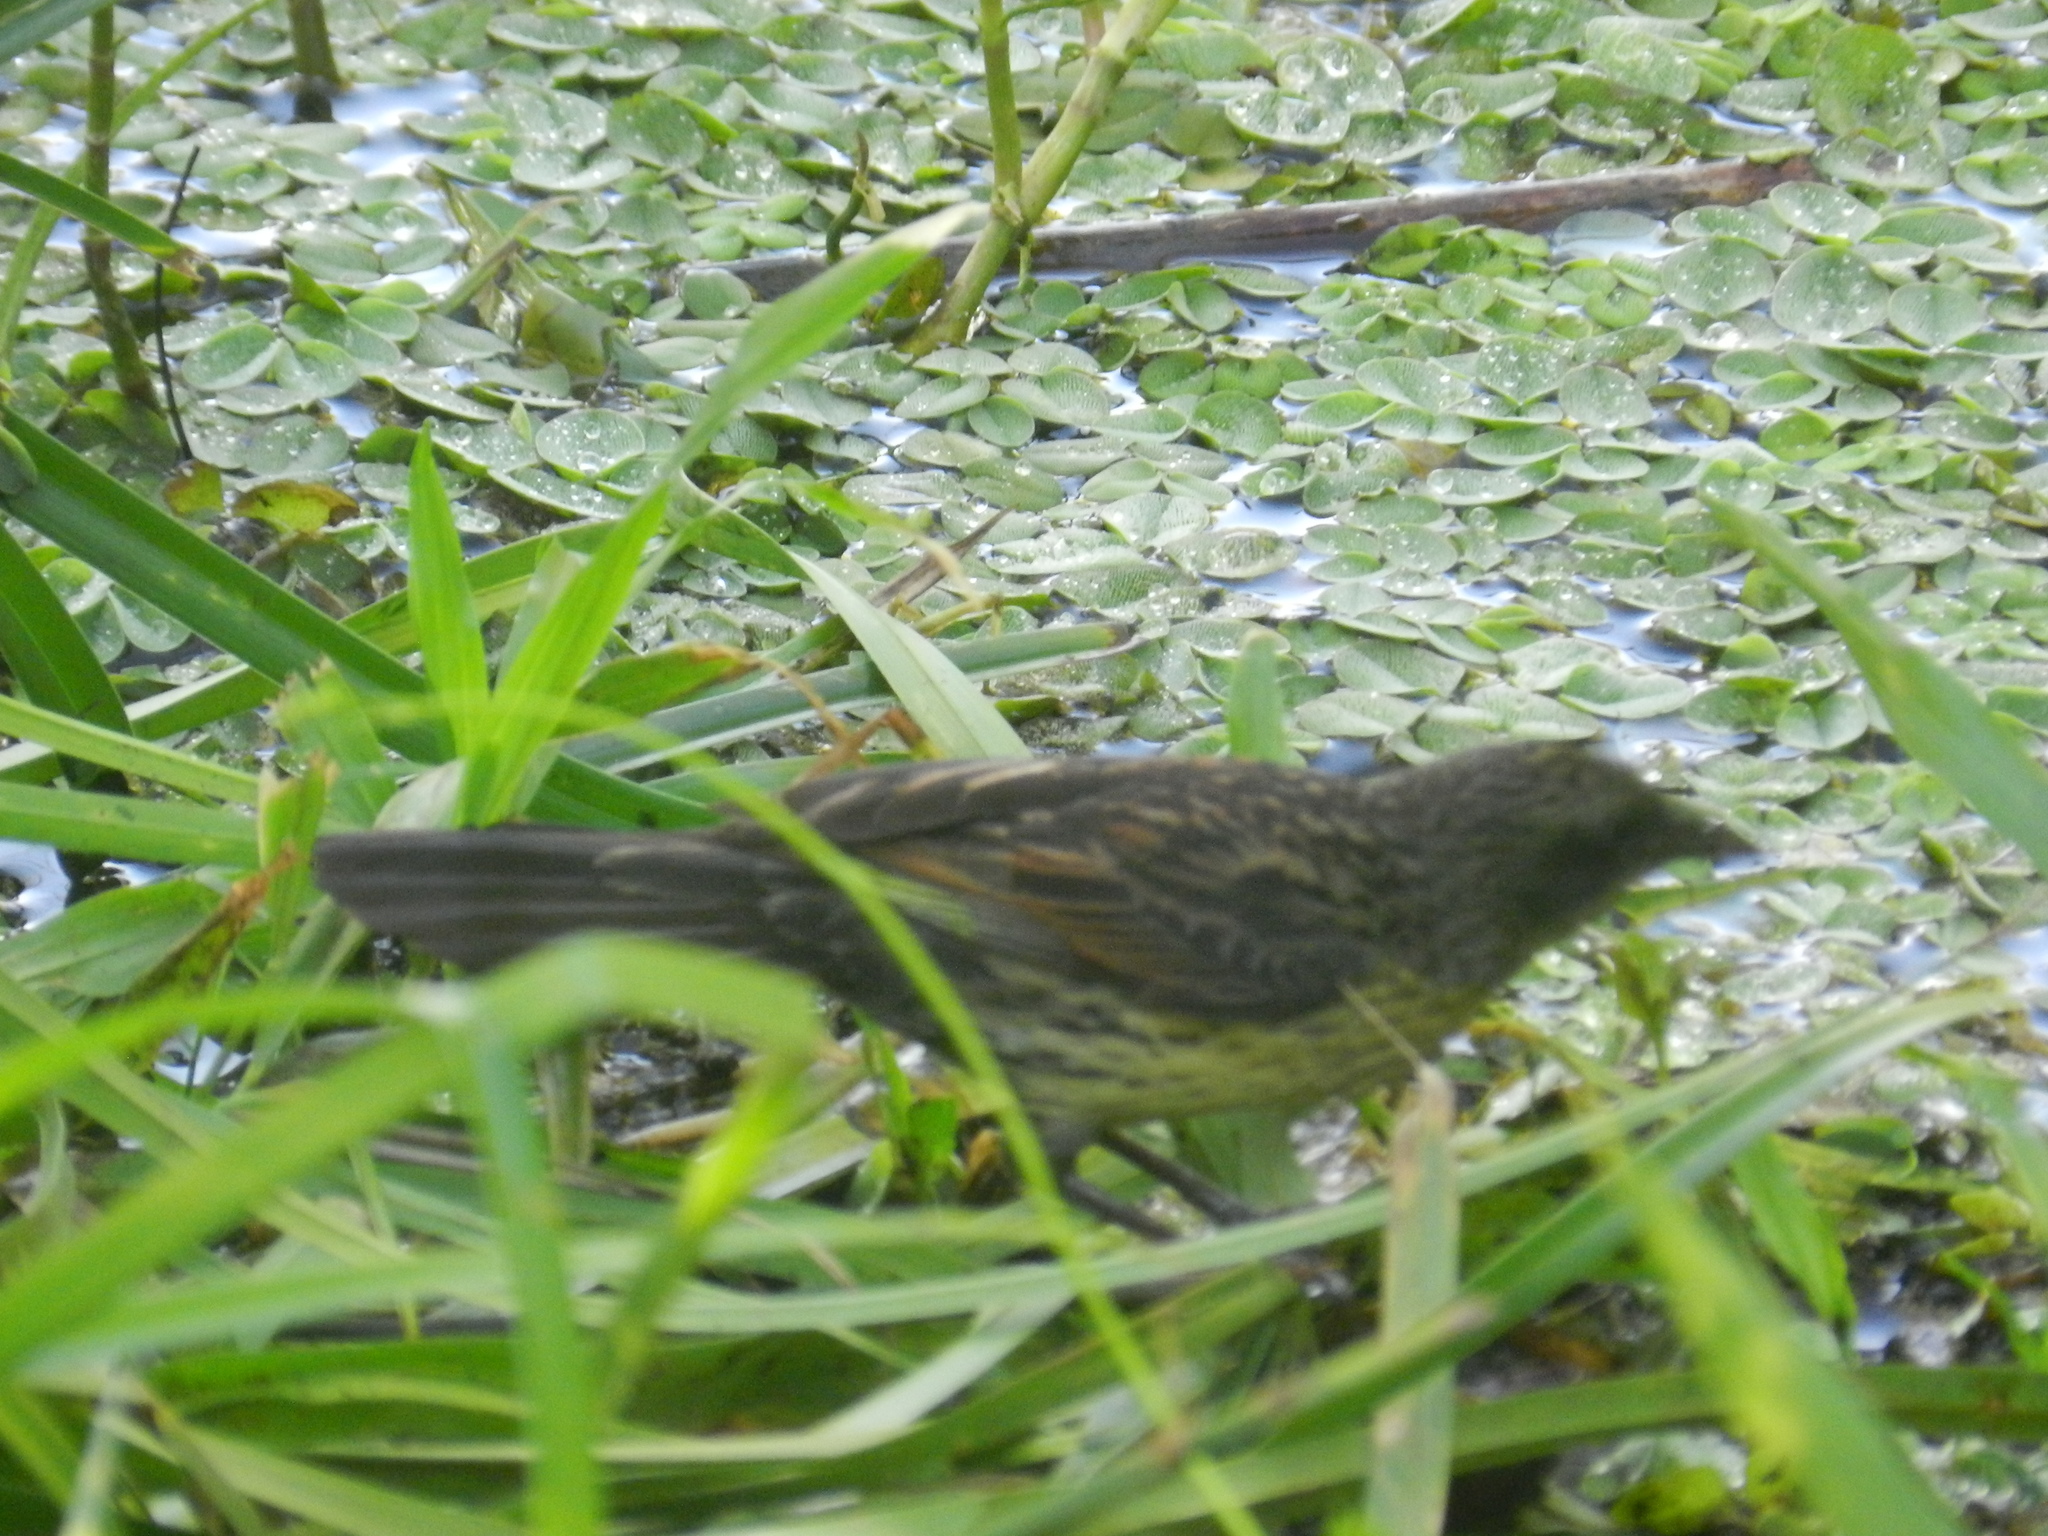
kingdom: Animalia
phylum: Chordata
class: Aves
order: Passeriformes
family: Icteridae
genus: Agelasticus
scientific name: Agelasticus cyanopus
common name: Unicolored blackbird
